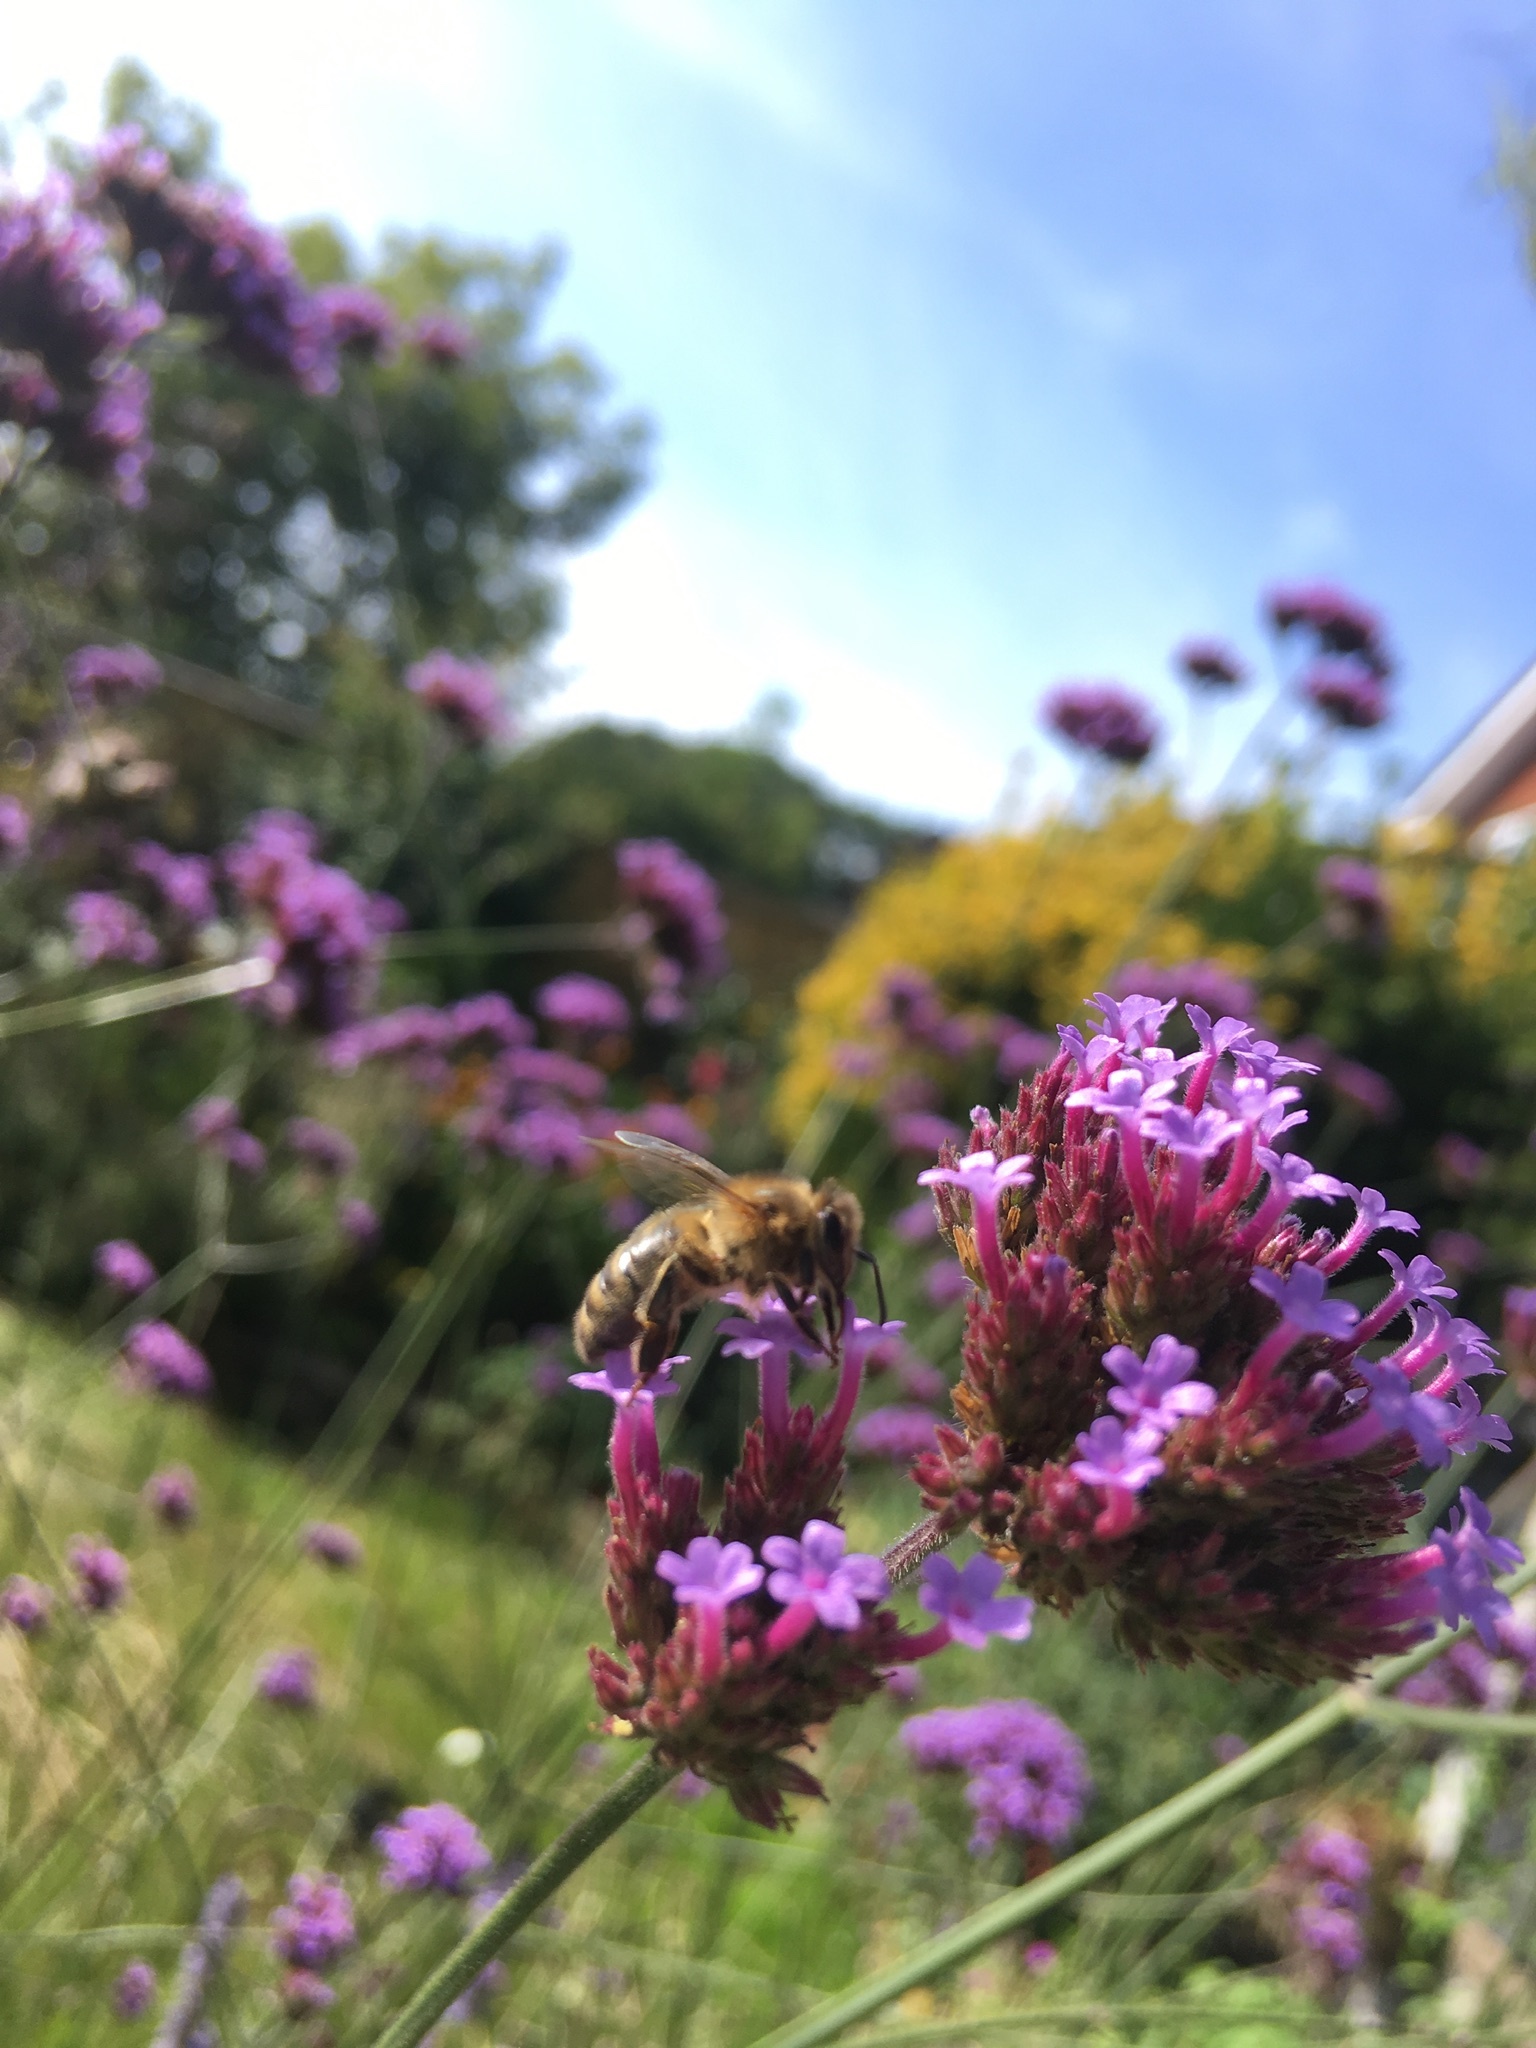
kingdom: Animalia
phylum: Arthropoda
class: Insecta
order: Hymenoptera
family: Apidae
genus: Apis
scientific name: Apis mellifera
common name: Honey bee
